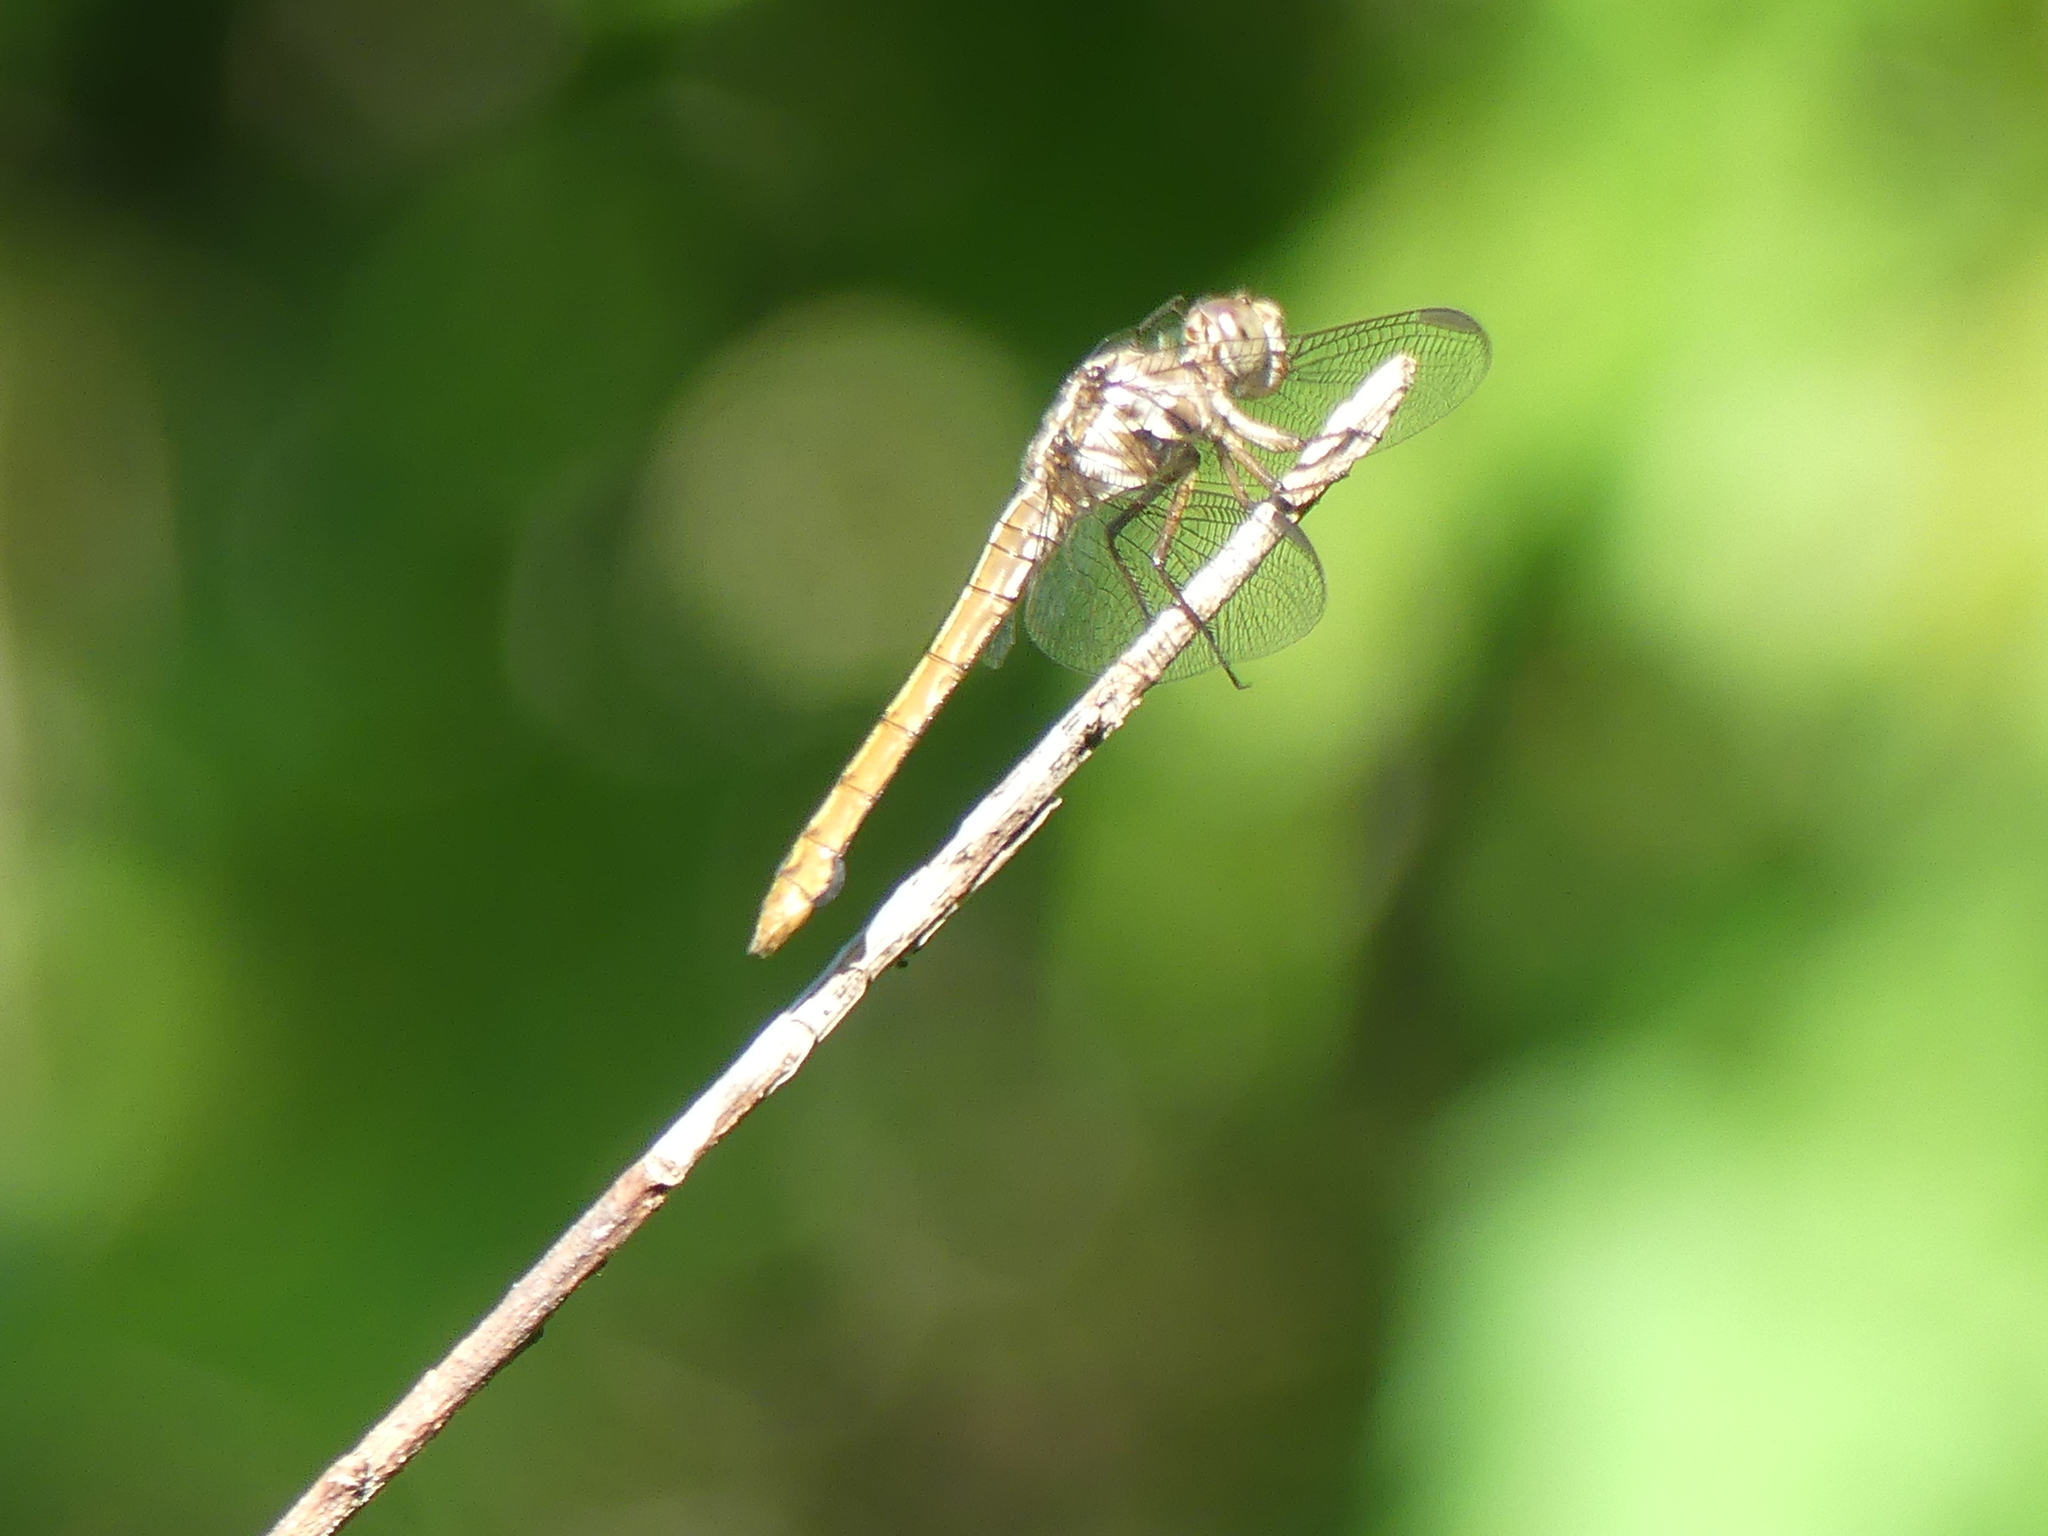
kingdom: Animalia
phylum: Arthropoda
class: Insecta
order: Odonata
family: Libellulidae
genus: Orthemis
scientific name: Orthemis ferruginea
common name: Roseate skimmer
